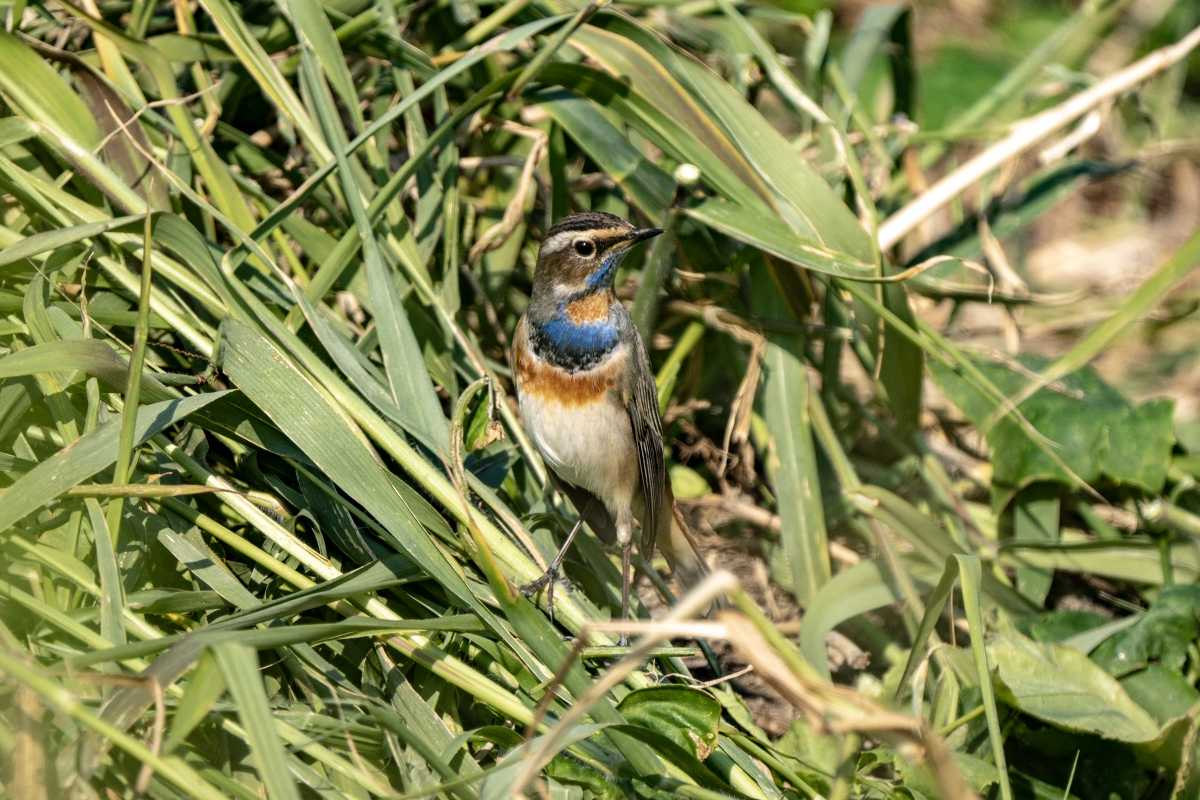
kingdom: Animalia
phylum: Chordata
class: Aves
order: Passeriformes
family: Muscicapidae
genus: Luscinia
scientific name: Luscinia svecica
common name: Bluethroat
